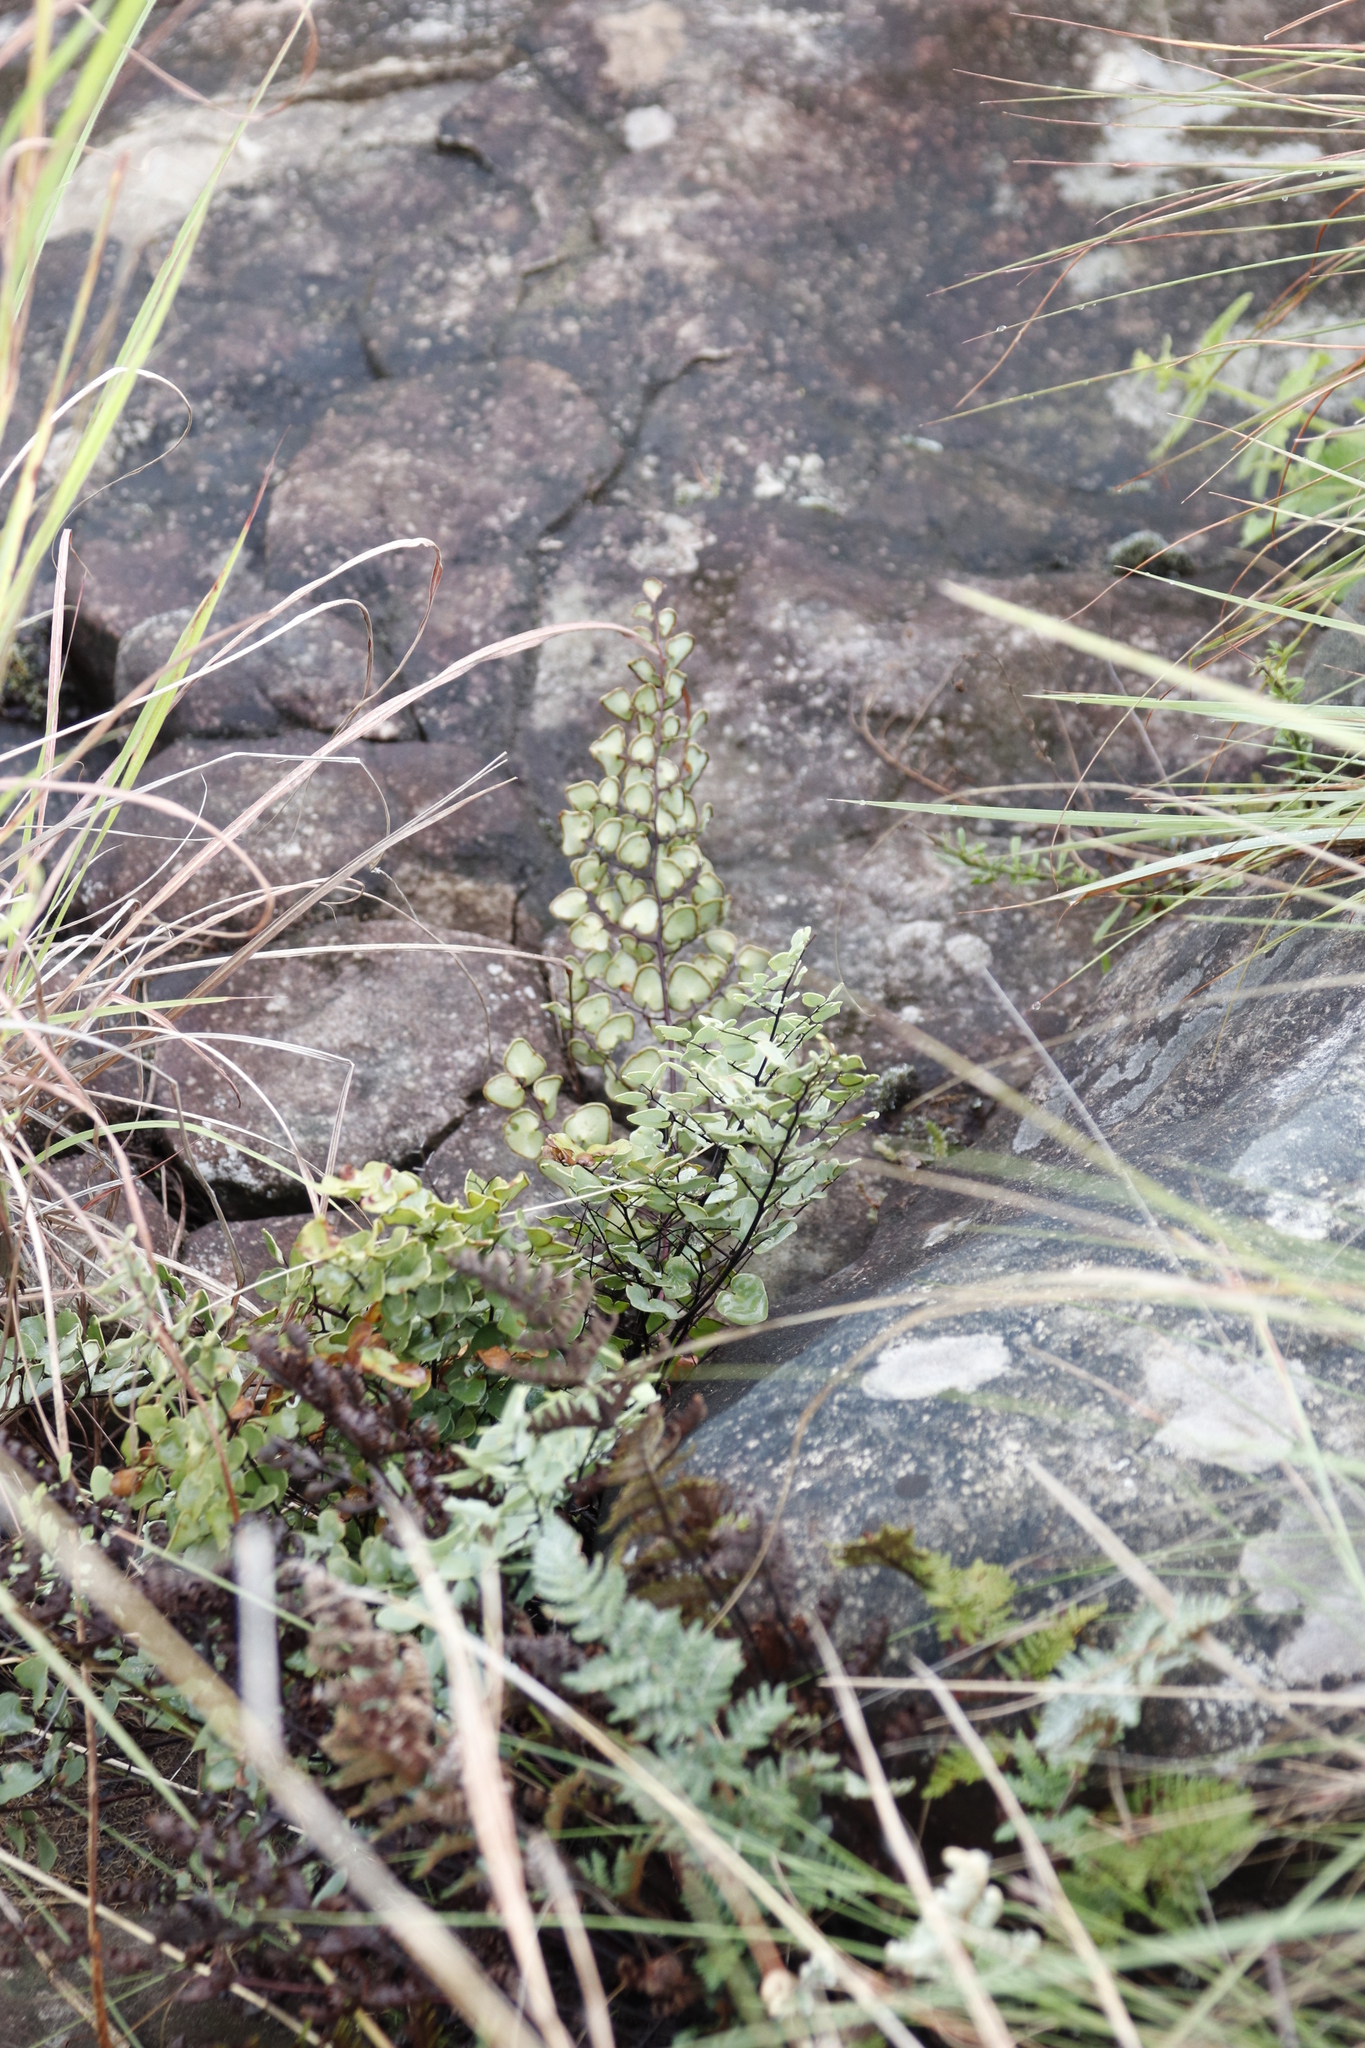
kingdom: Plantae
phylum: Tracheophyta
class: Polypodiopsida
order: Polypodiales
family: Pteridaceae
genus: Pellaea
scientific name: Pellaea calomelanos
